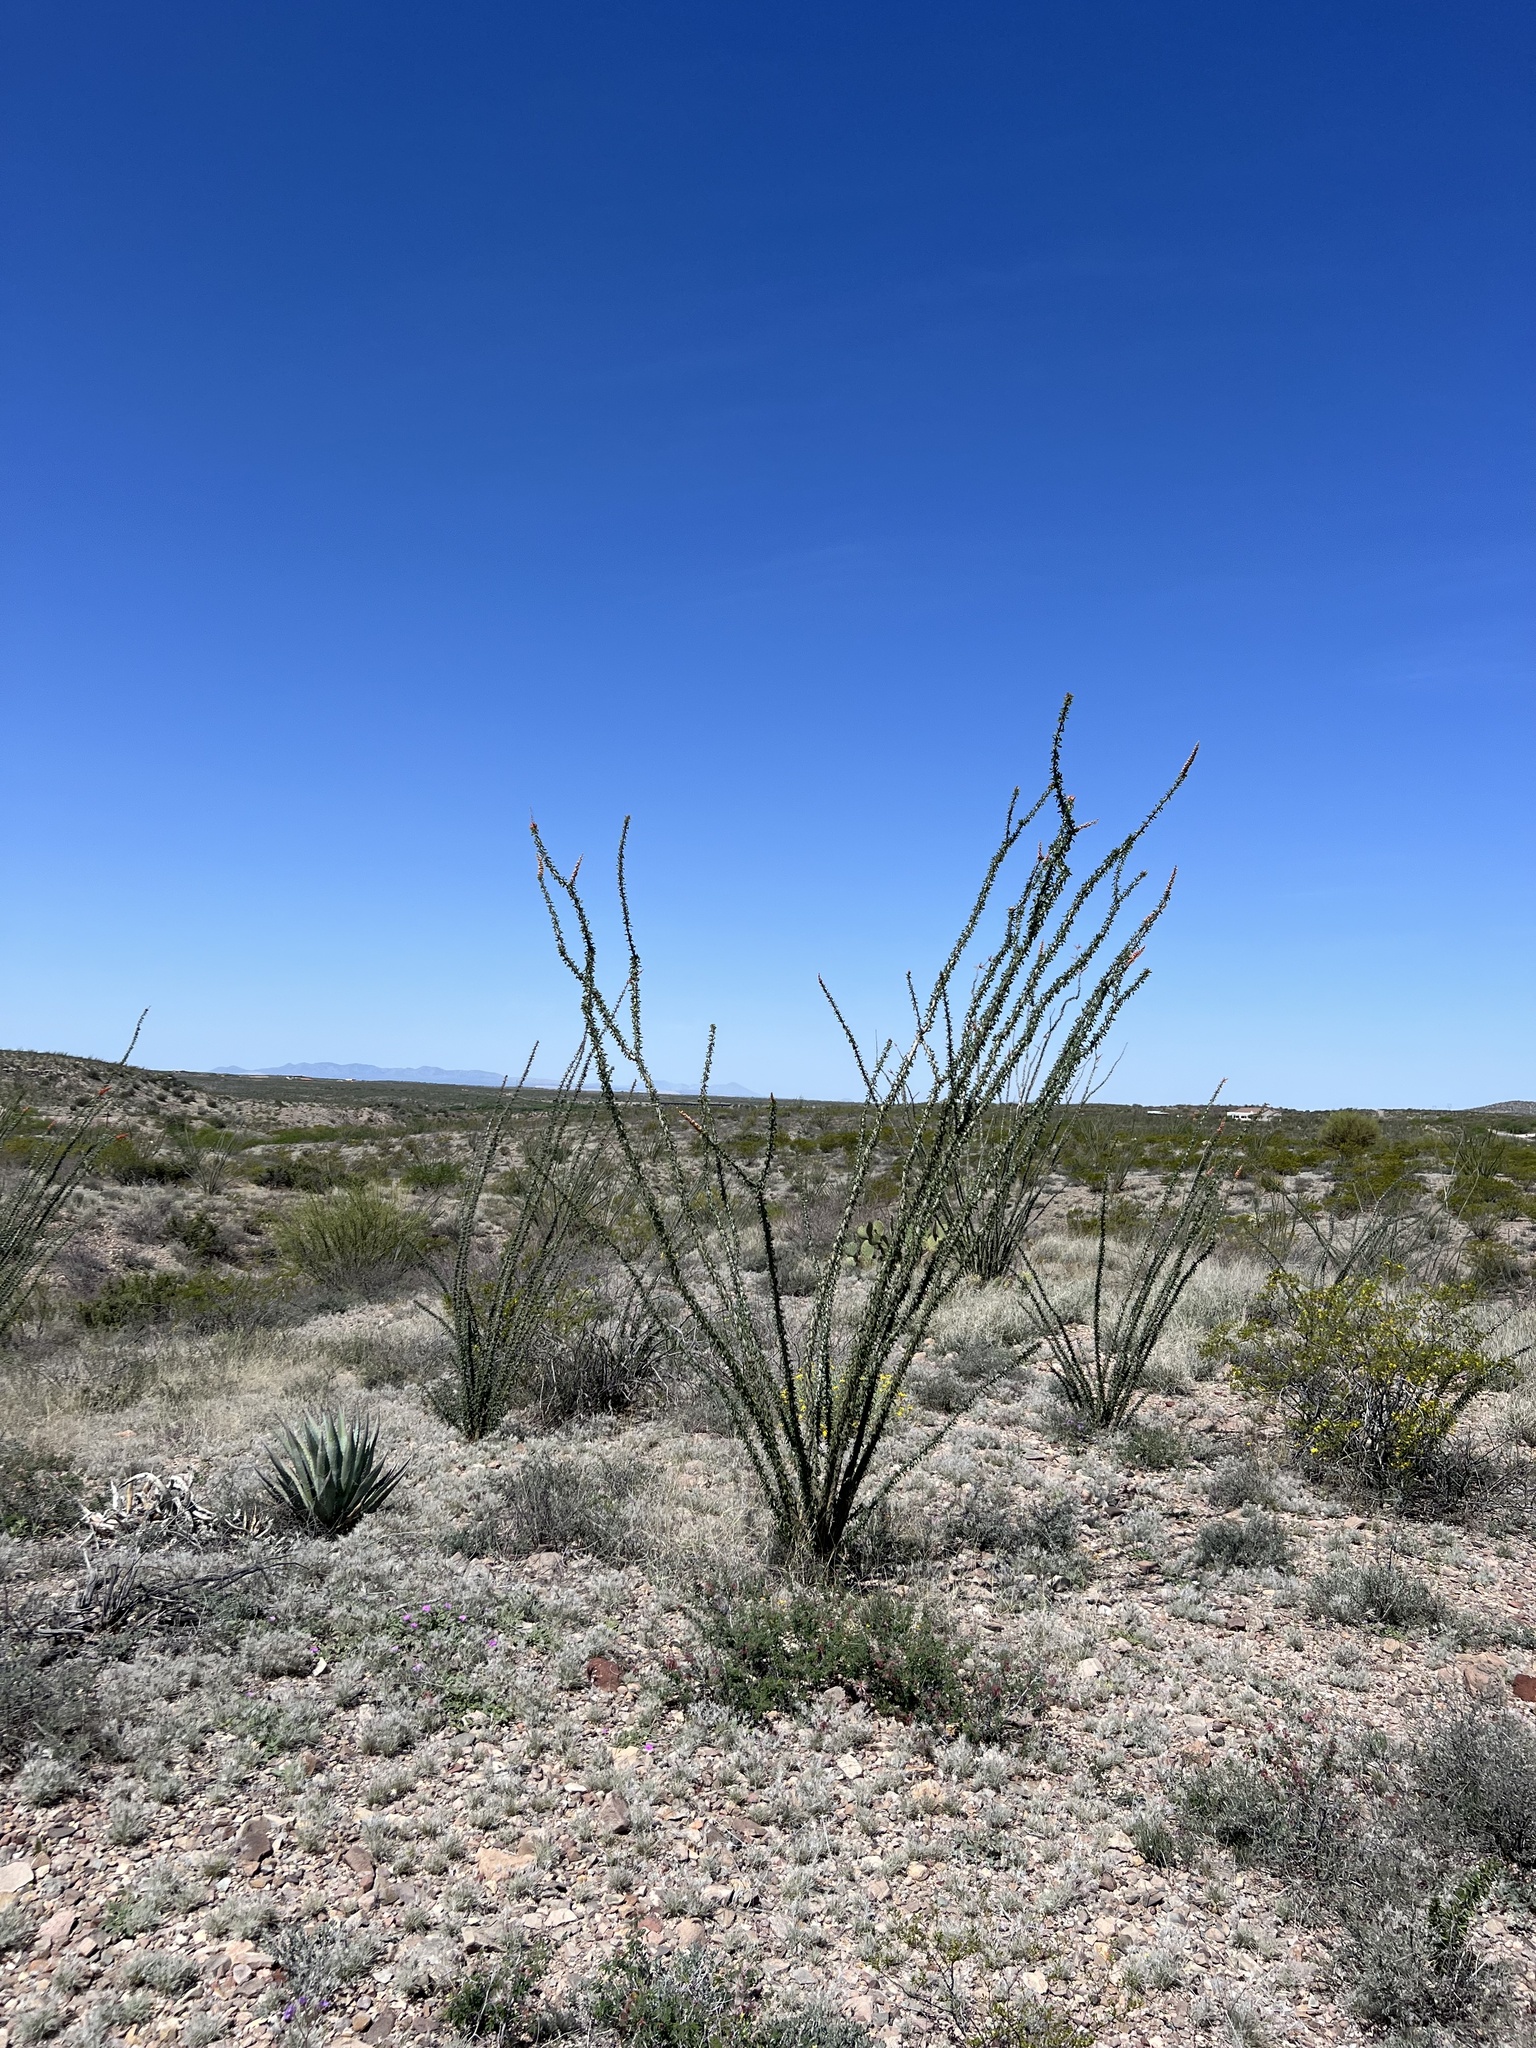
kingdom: Plantae
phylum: Tracheophyta
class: Magnoliopsida
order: Ericales
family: Fouquieriaceae
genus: Fouquieria
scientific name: Fouquieria splendens
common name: Vine-cactus
